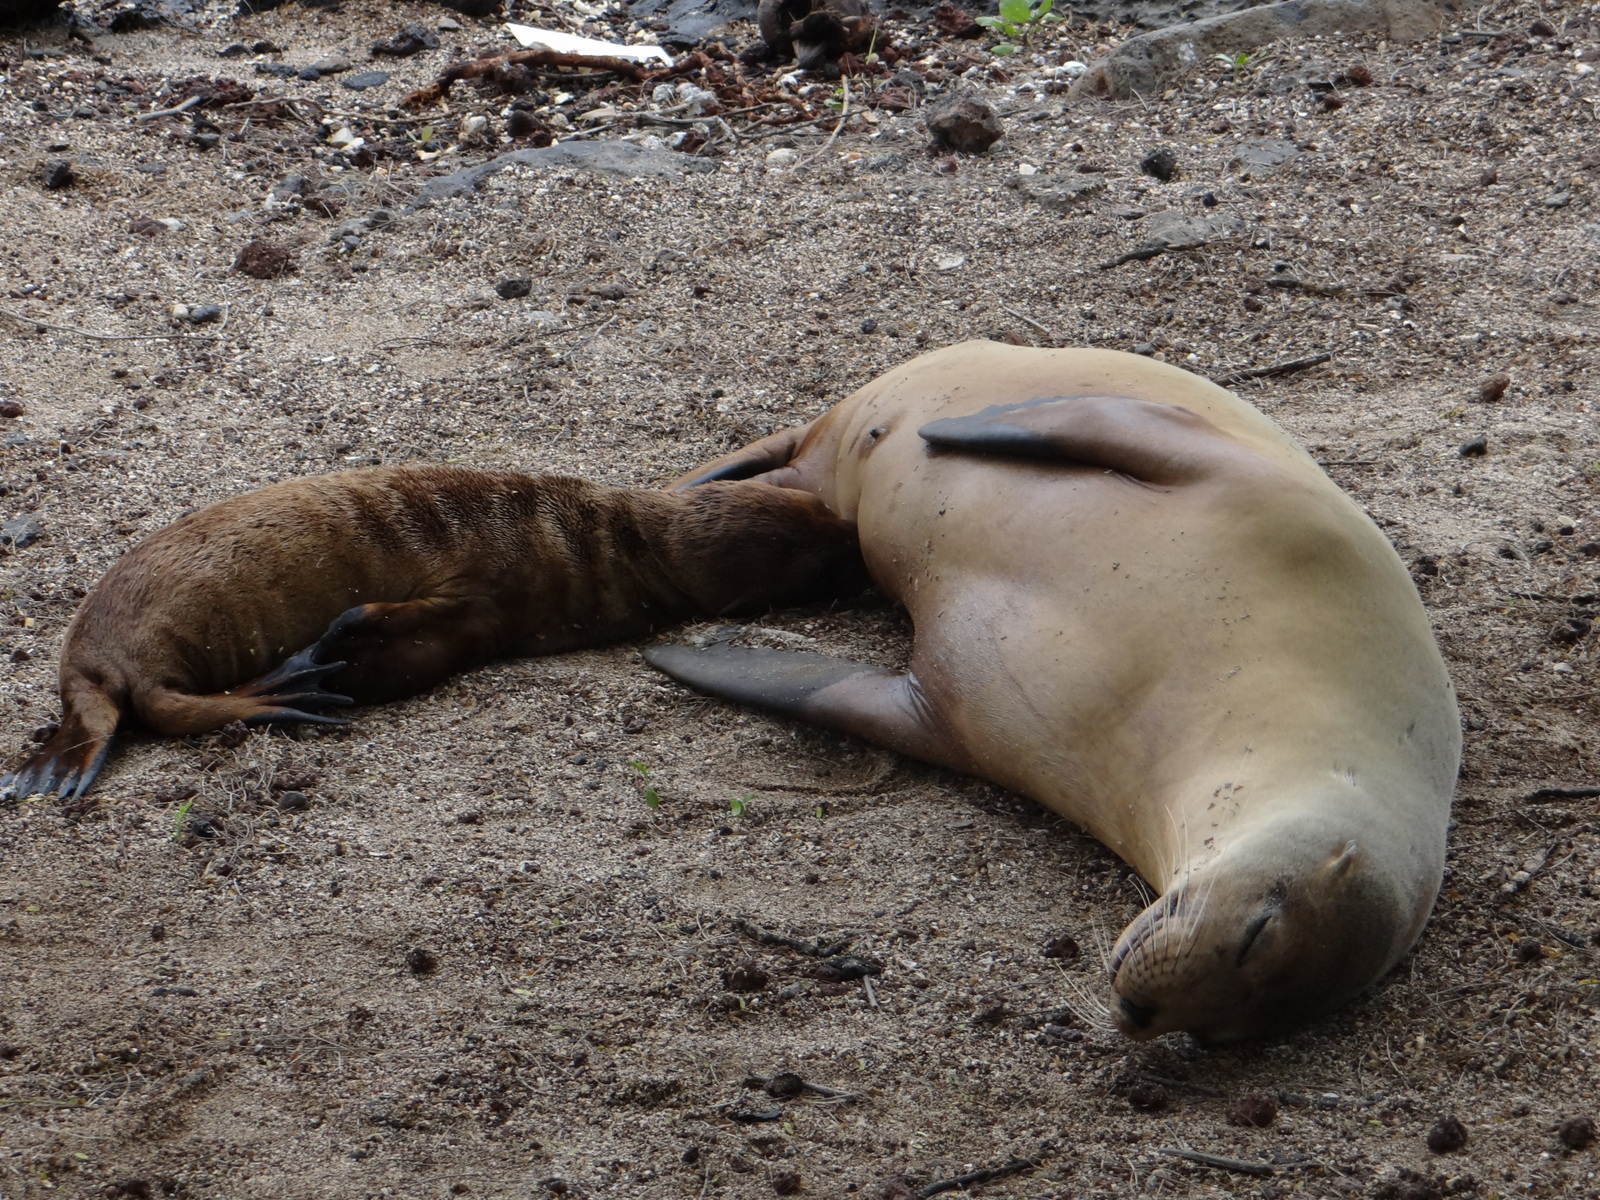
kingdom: Animalia
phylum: Chordata
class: Mammalia
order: Carnivora
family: Otariidae
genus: Zalophus
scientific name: Zalophus wollebaeki
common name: Galapagos sea lion
